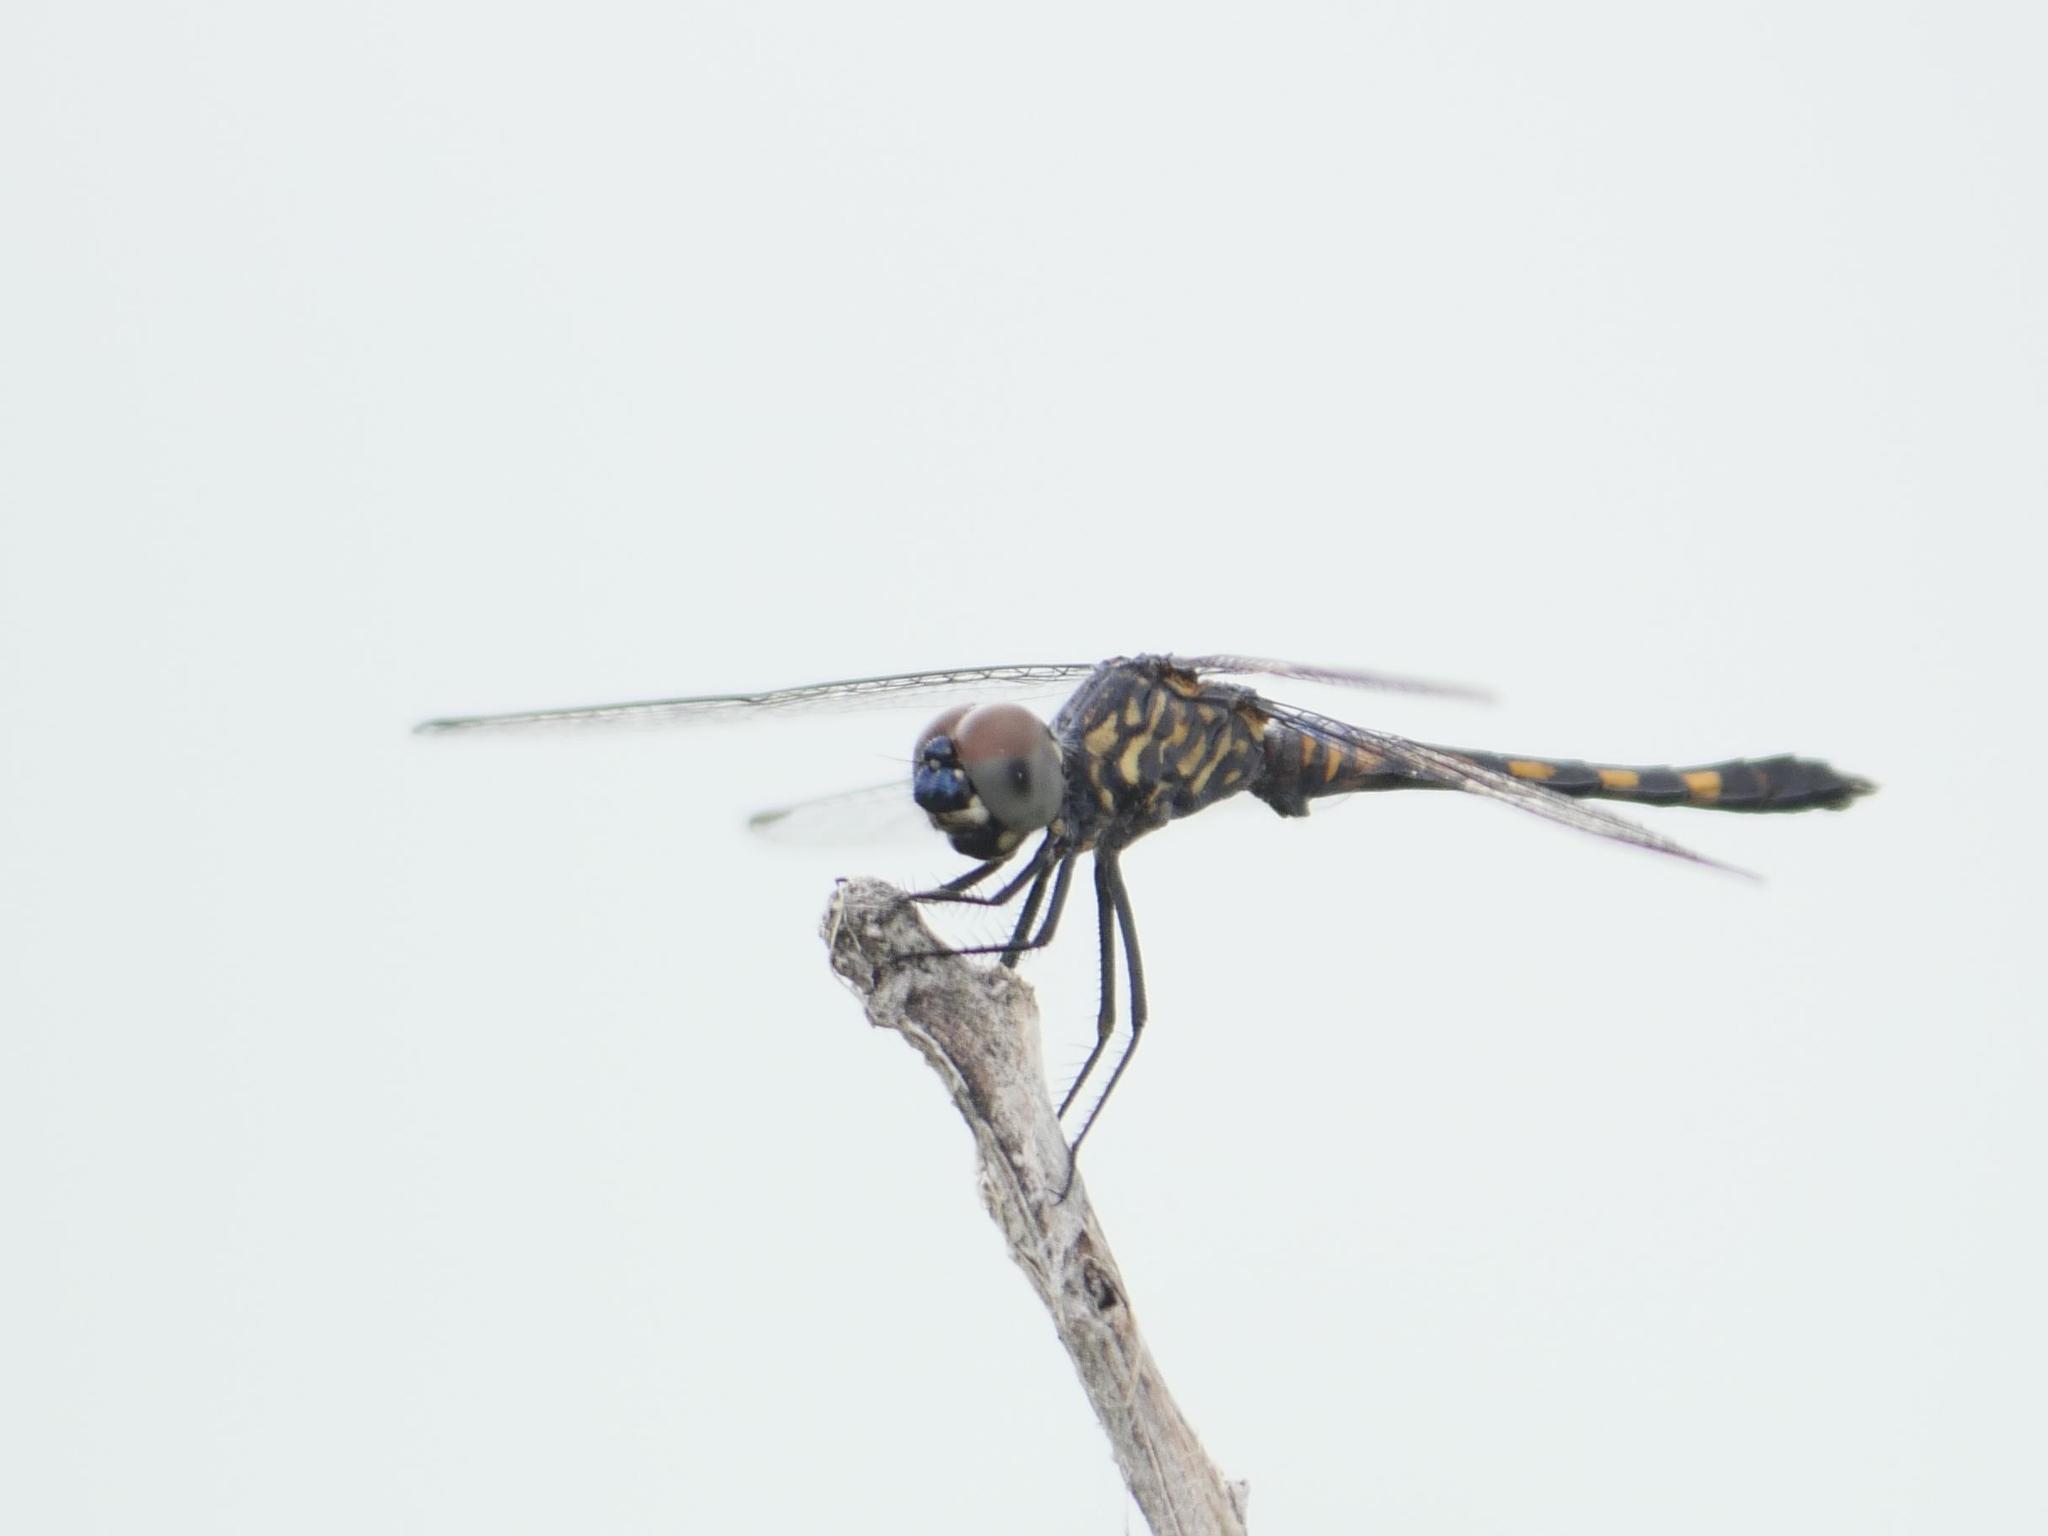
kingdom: Animalia
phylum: Arthropoda
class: Insecta
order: Odonata
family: Libellulidae
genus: Erythrodiplax
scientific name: Erythrodiplax berenice
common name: Seaside dragonlet
